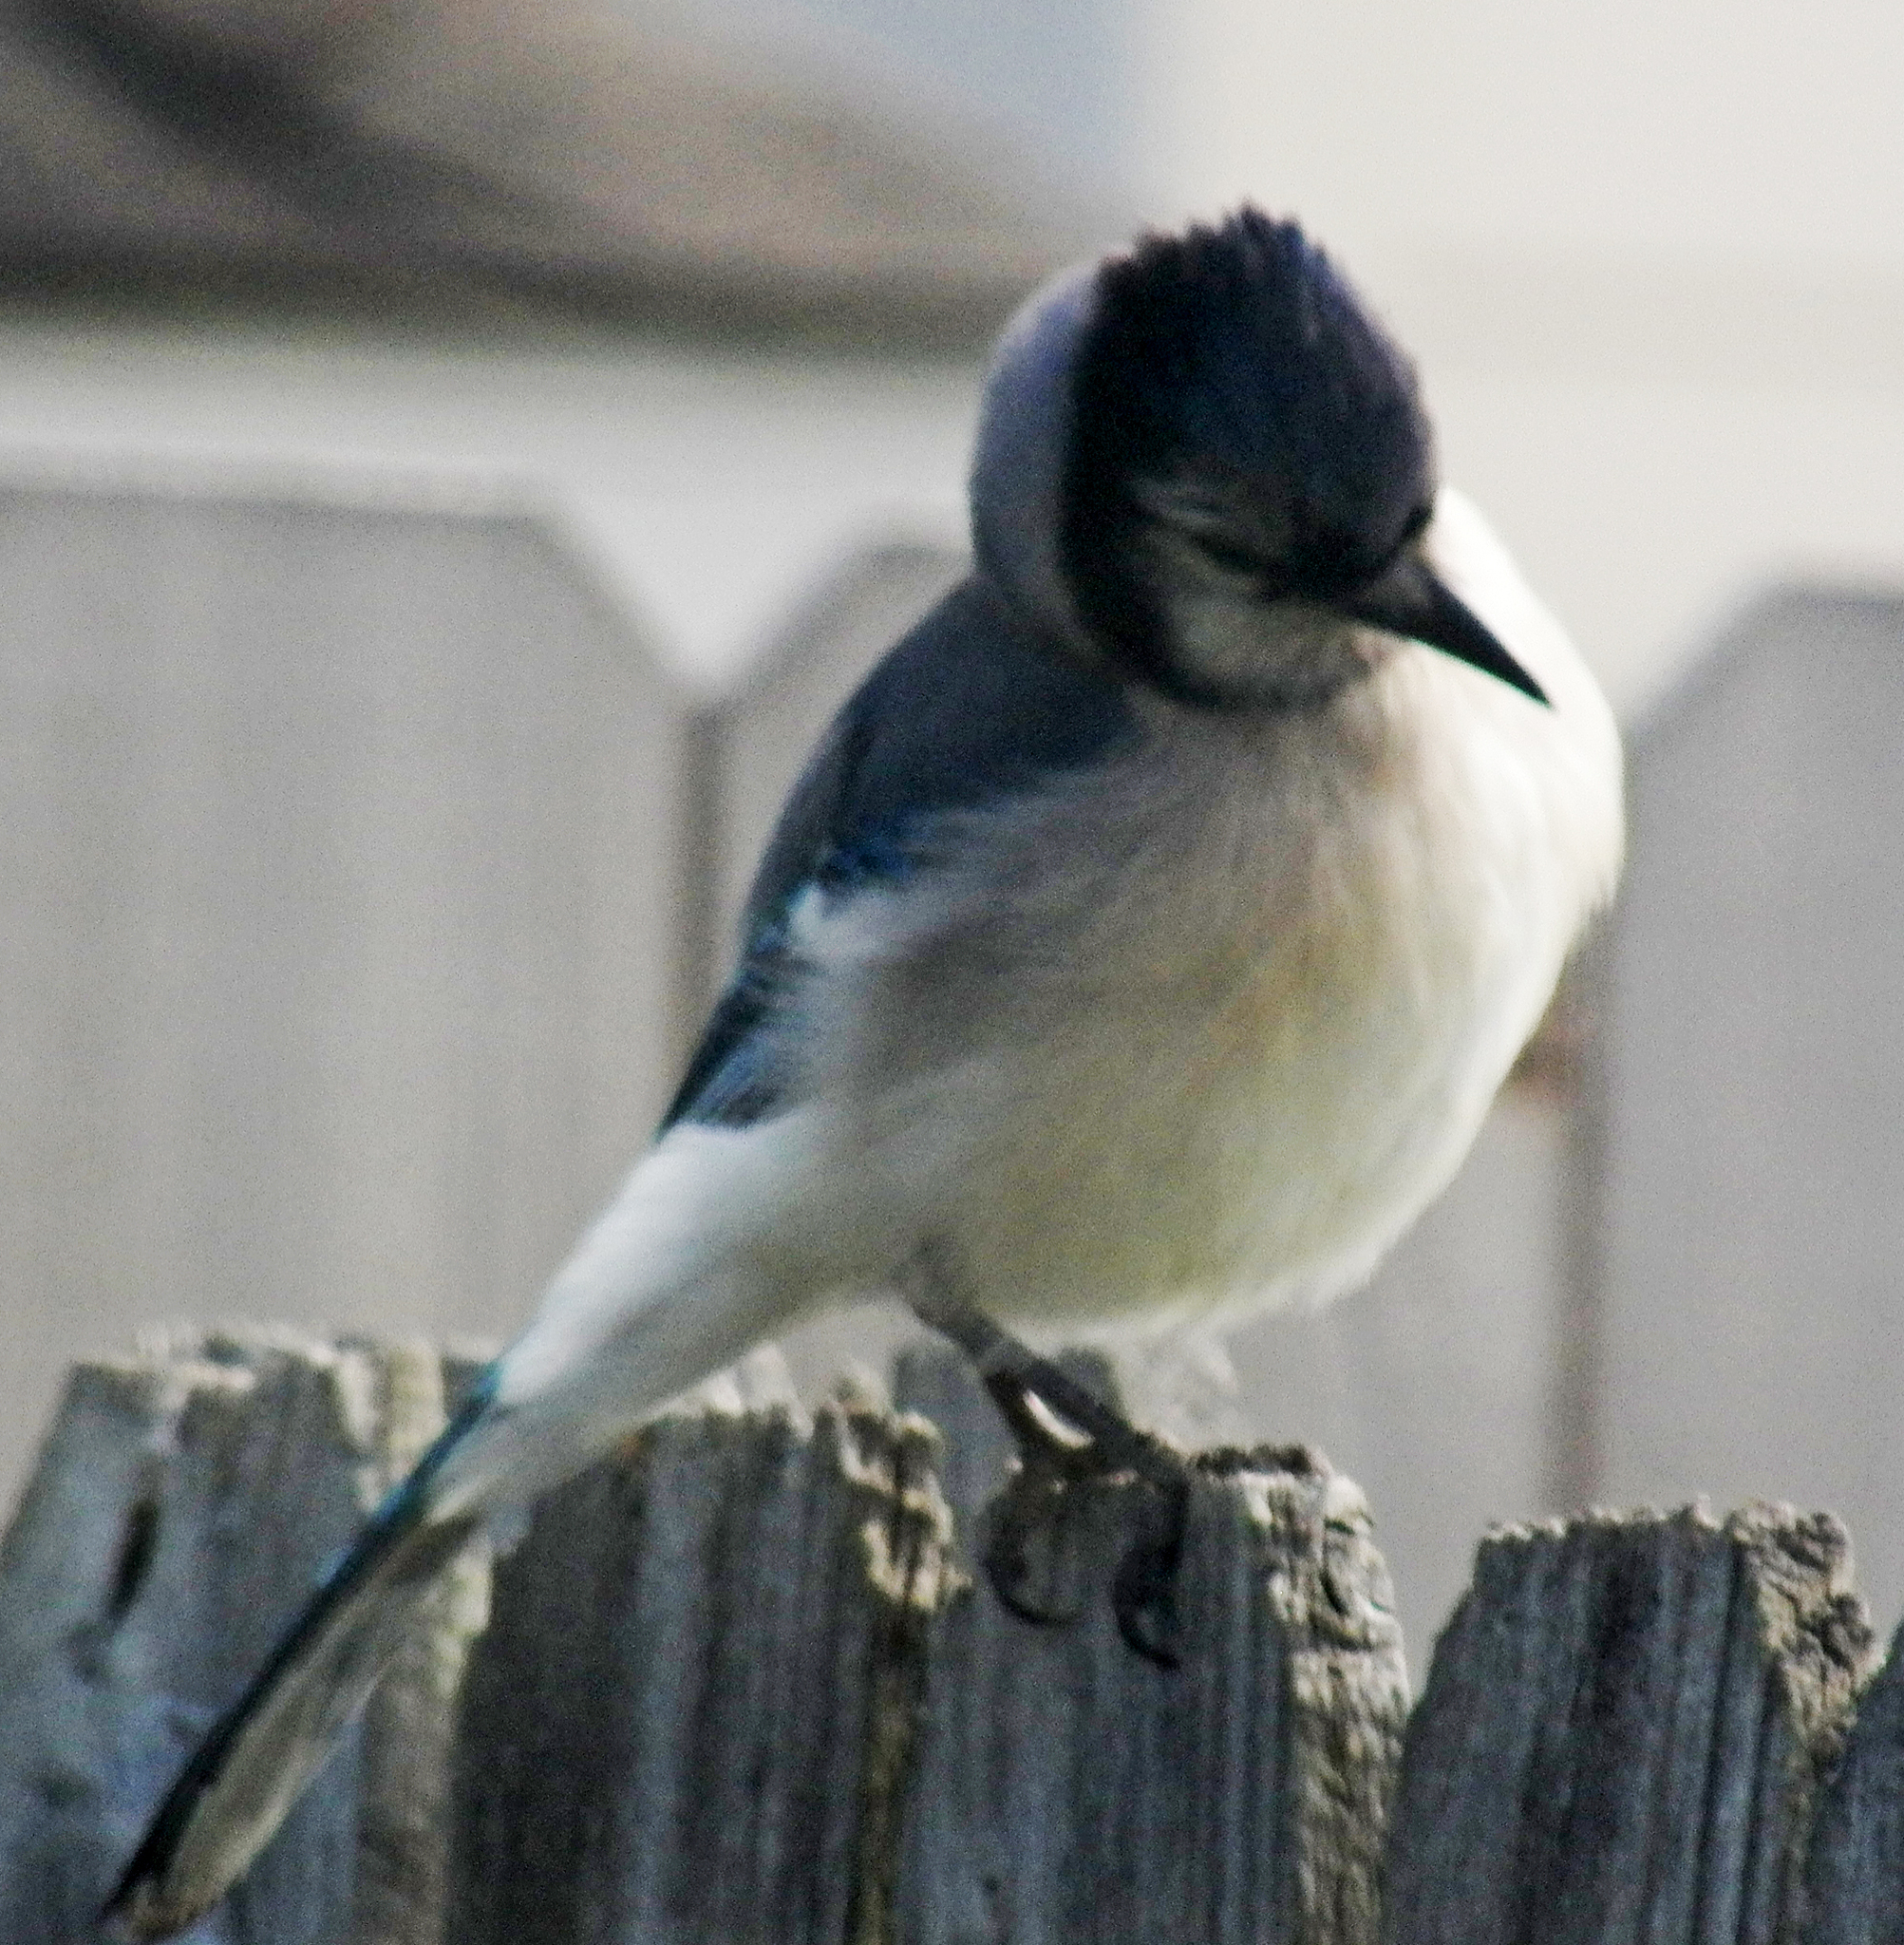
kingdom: Animalia
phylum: Chordata
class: Aves
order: Passeriformes
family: Corvidae
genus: Cyanocitta
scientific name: Cyanocitta cristata
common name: Blue jay
